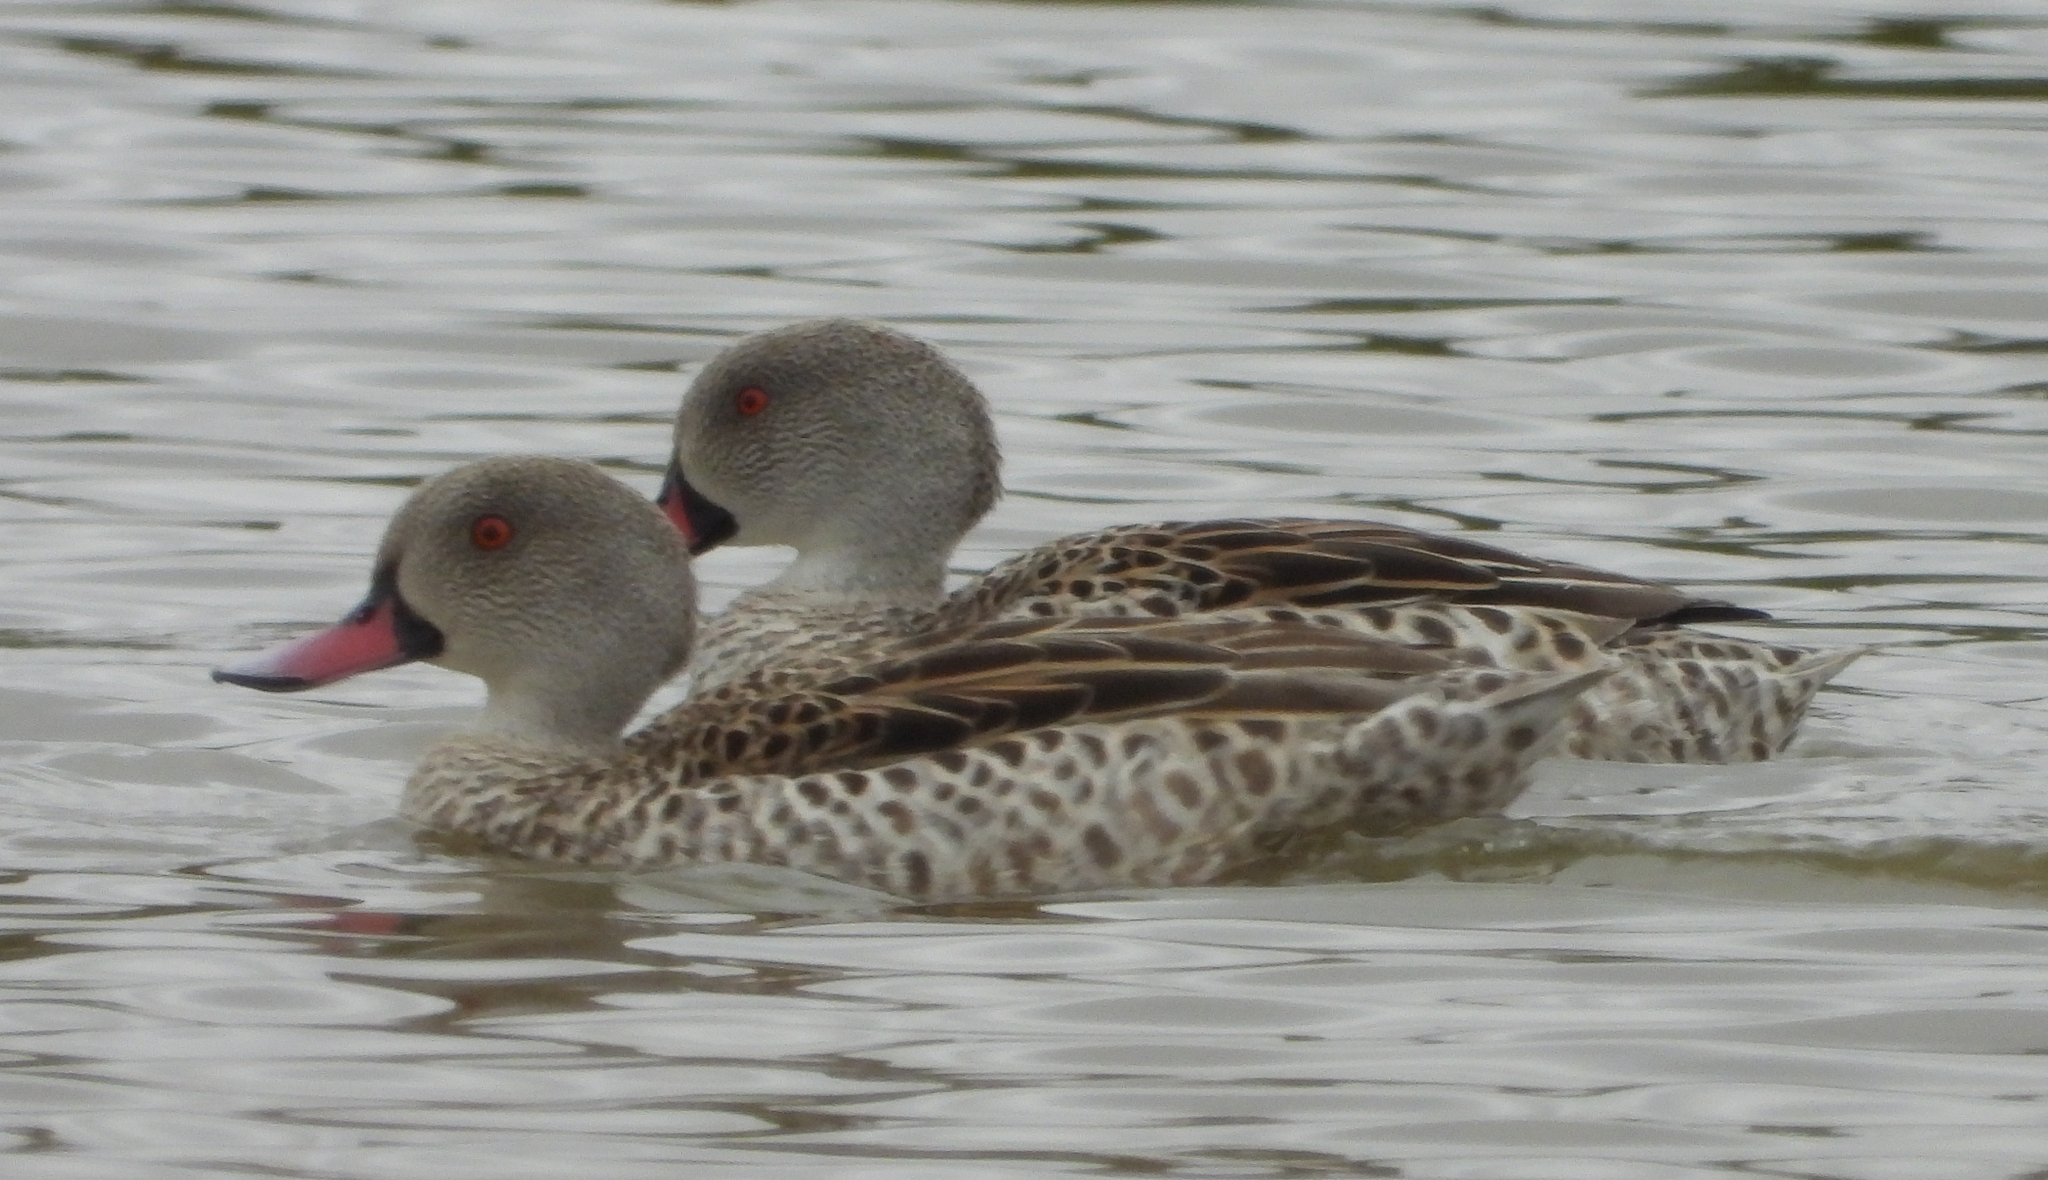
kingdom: Animalia
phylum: Chordata
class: Aves
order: Anseriformes
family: Anatidae
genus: Anas
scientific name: Anas capensis
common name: Cape teal
